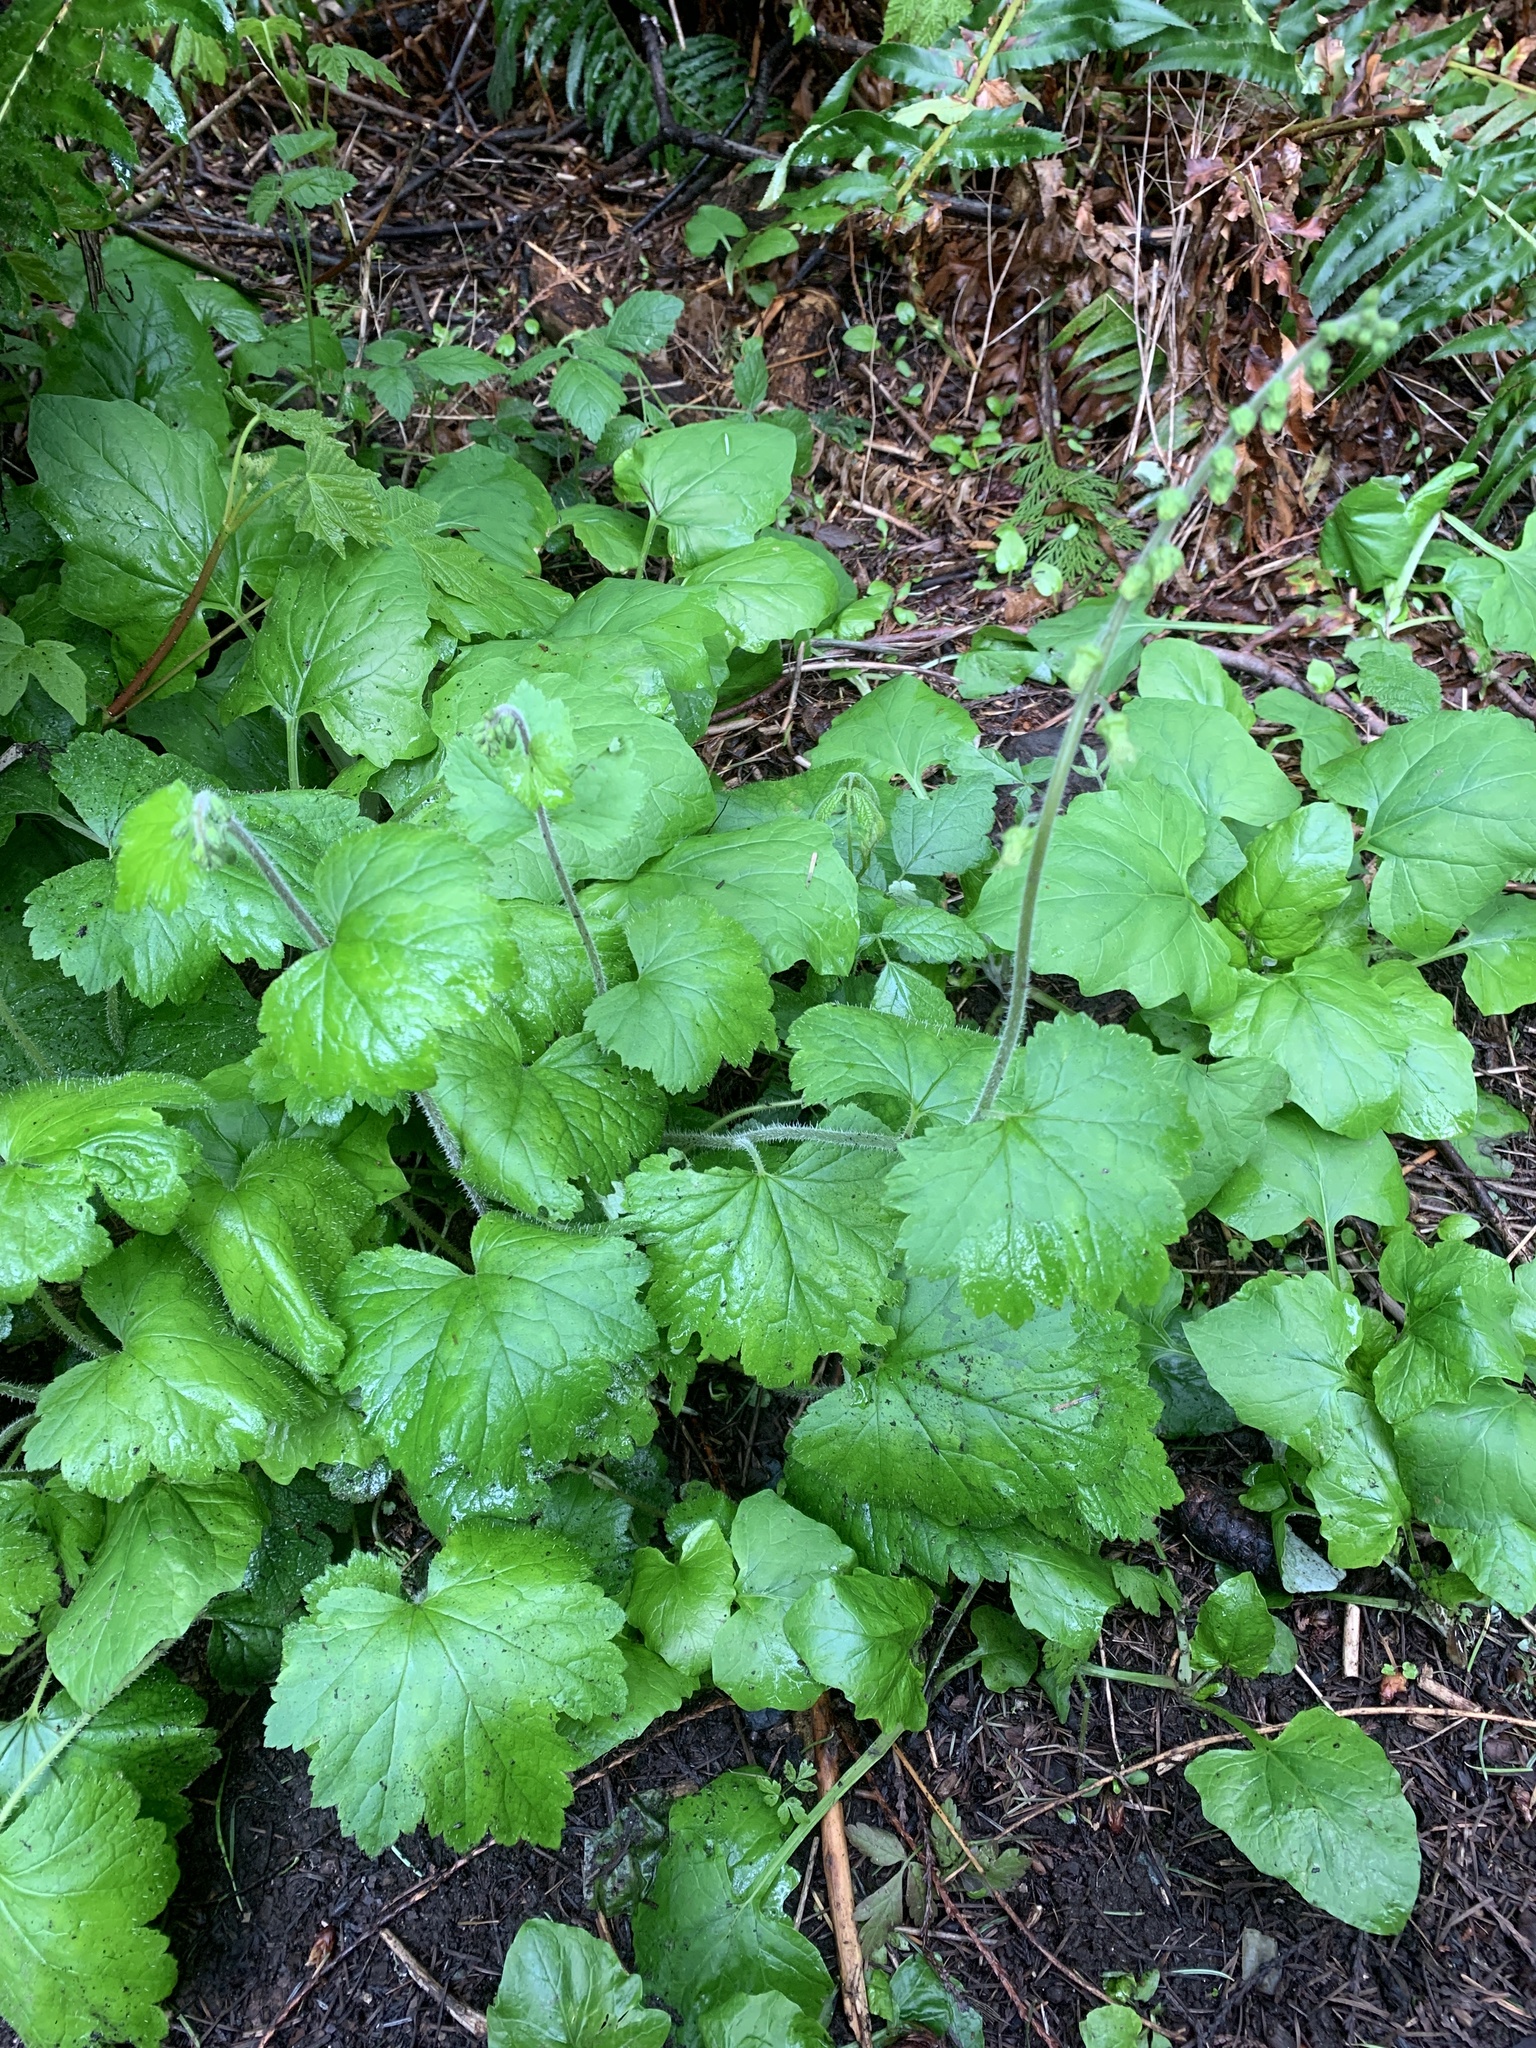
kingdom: Plantae
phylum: Tracheophyta
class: Magnoliopsida
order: Saxifragales
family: Saxifragaceae
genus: Tellima
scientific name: Tellima grandiflora
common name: Fringecups
